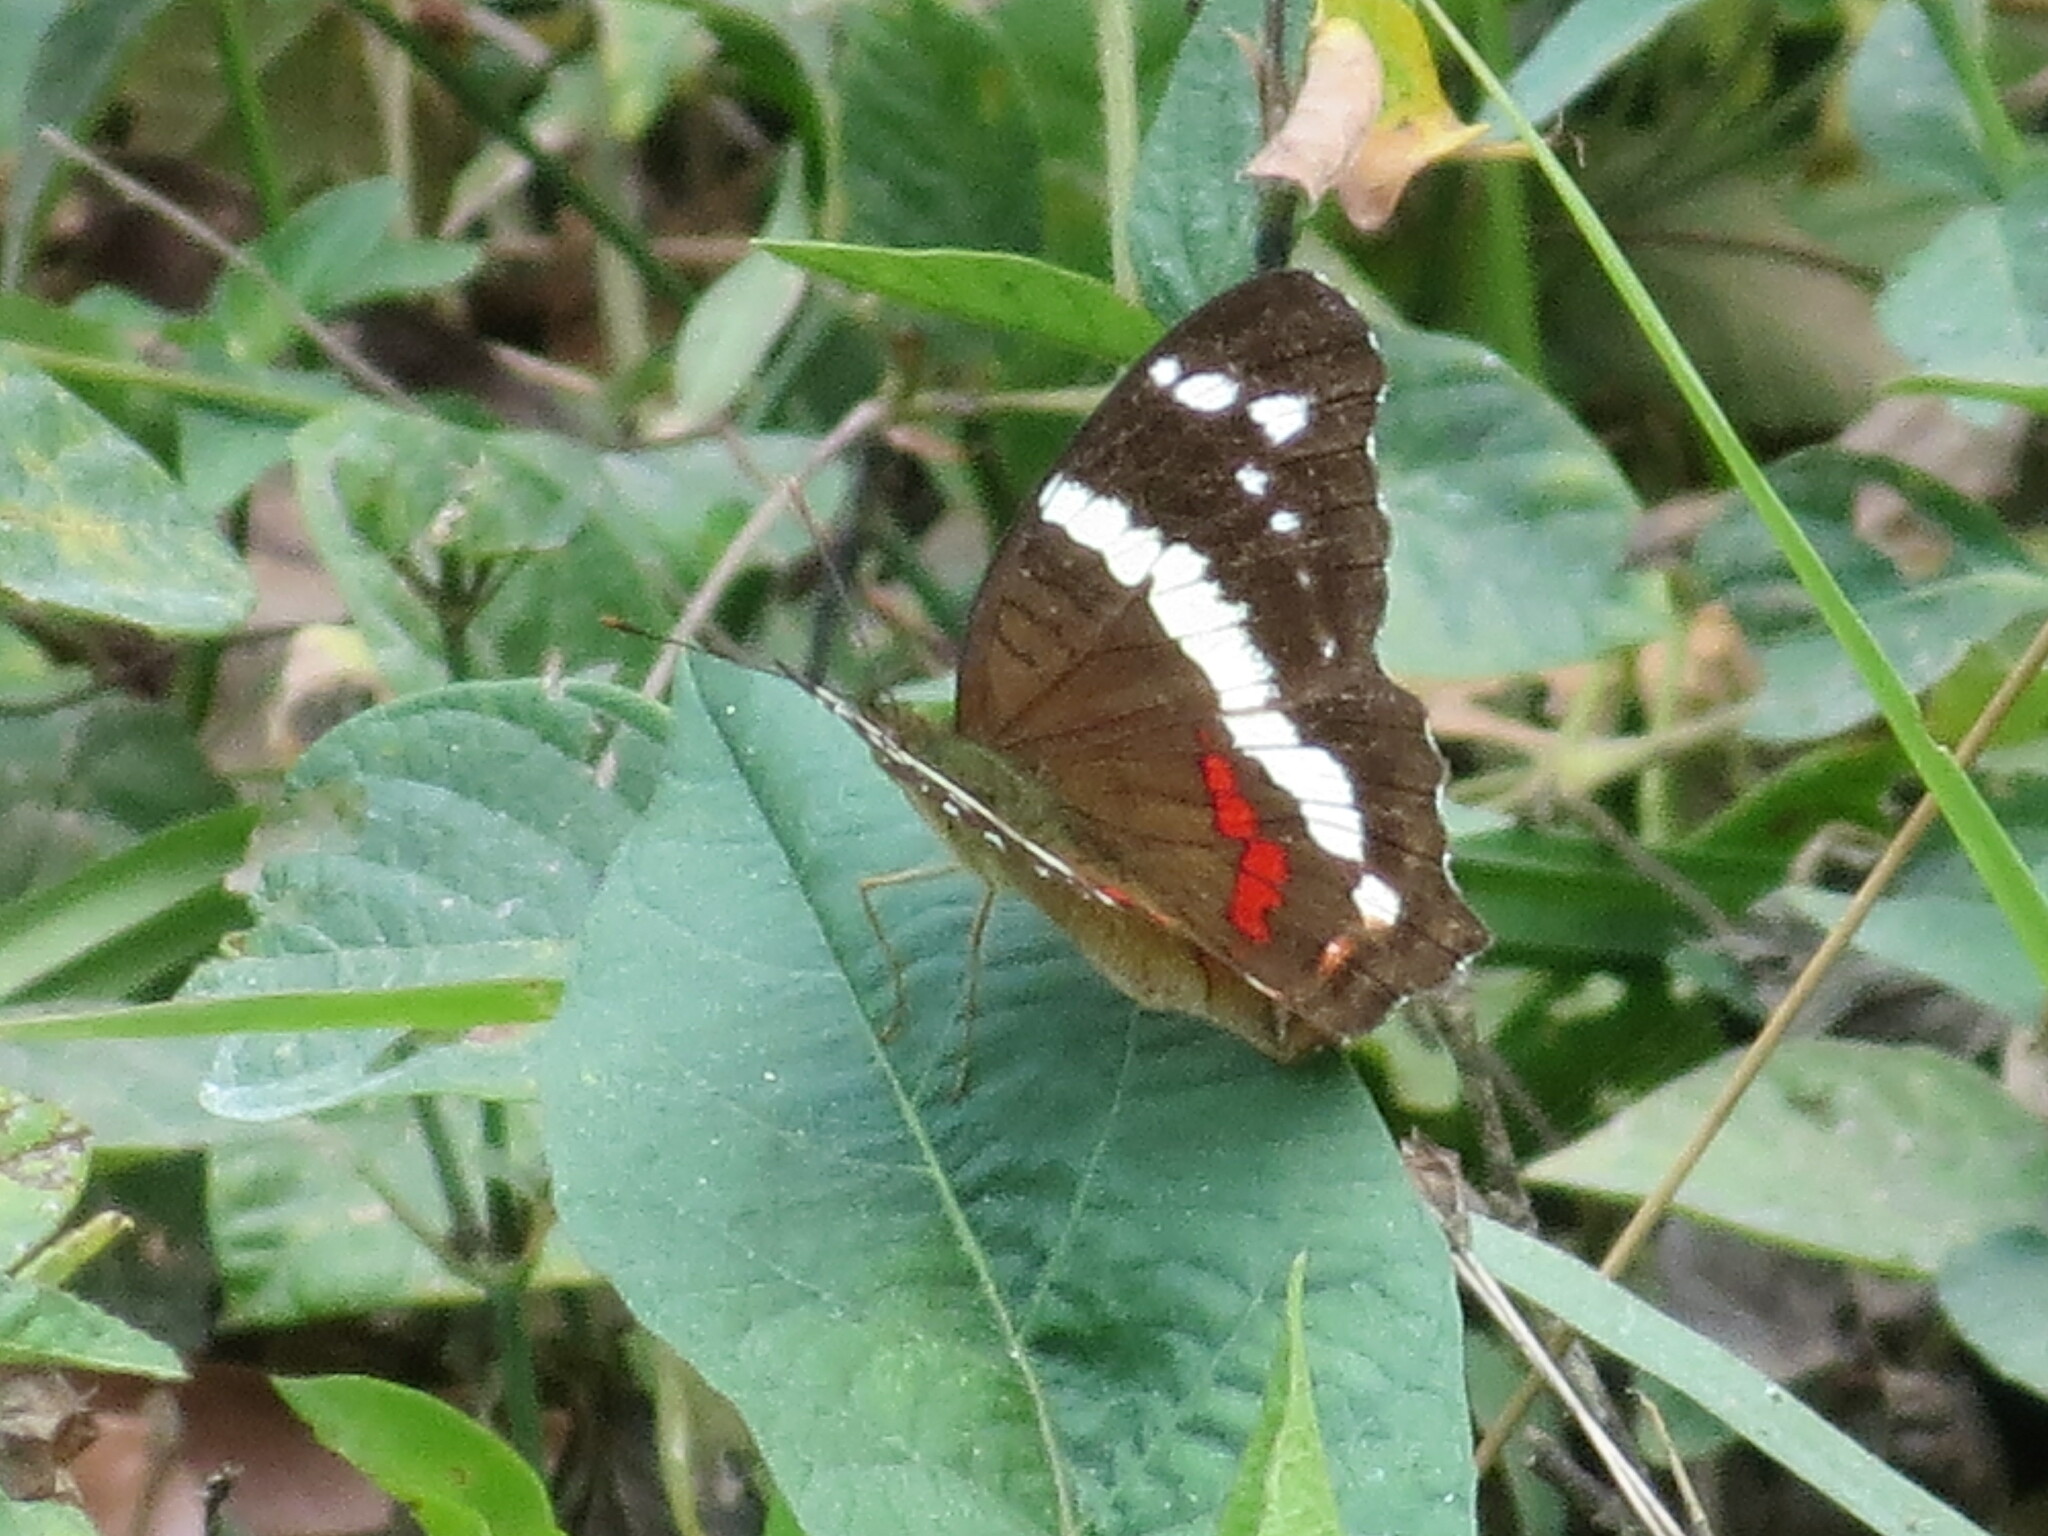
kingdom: Animalia
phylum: Arthropoda
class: Insecta
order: Lepidoptera
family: Nymphalidae
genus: Anartia
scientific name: Anartia fatima
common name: Banded peacock
